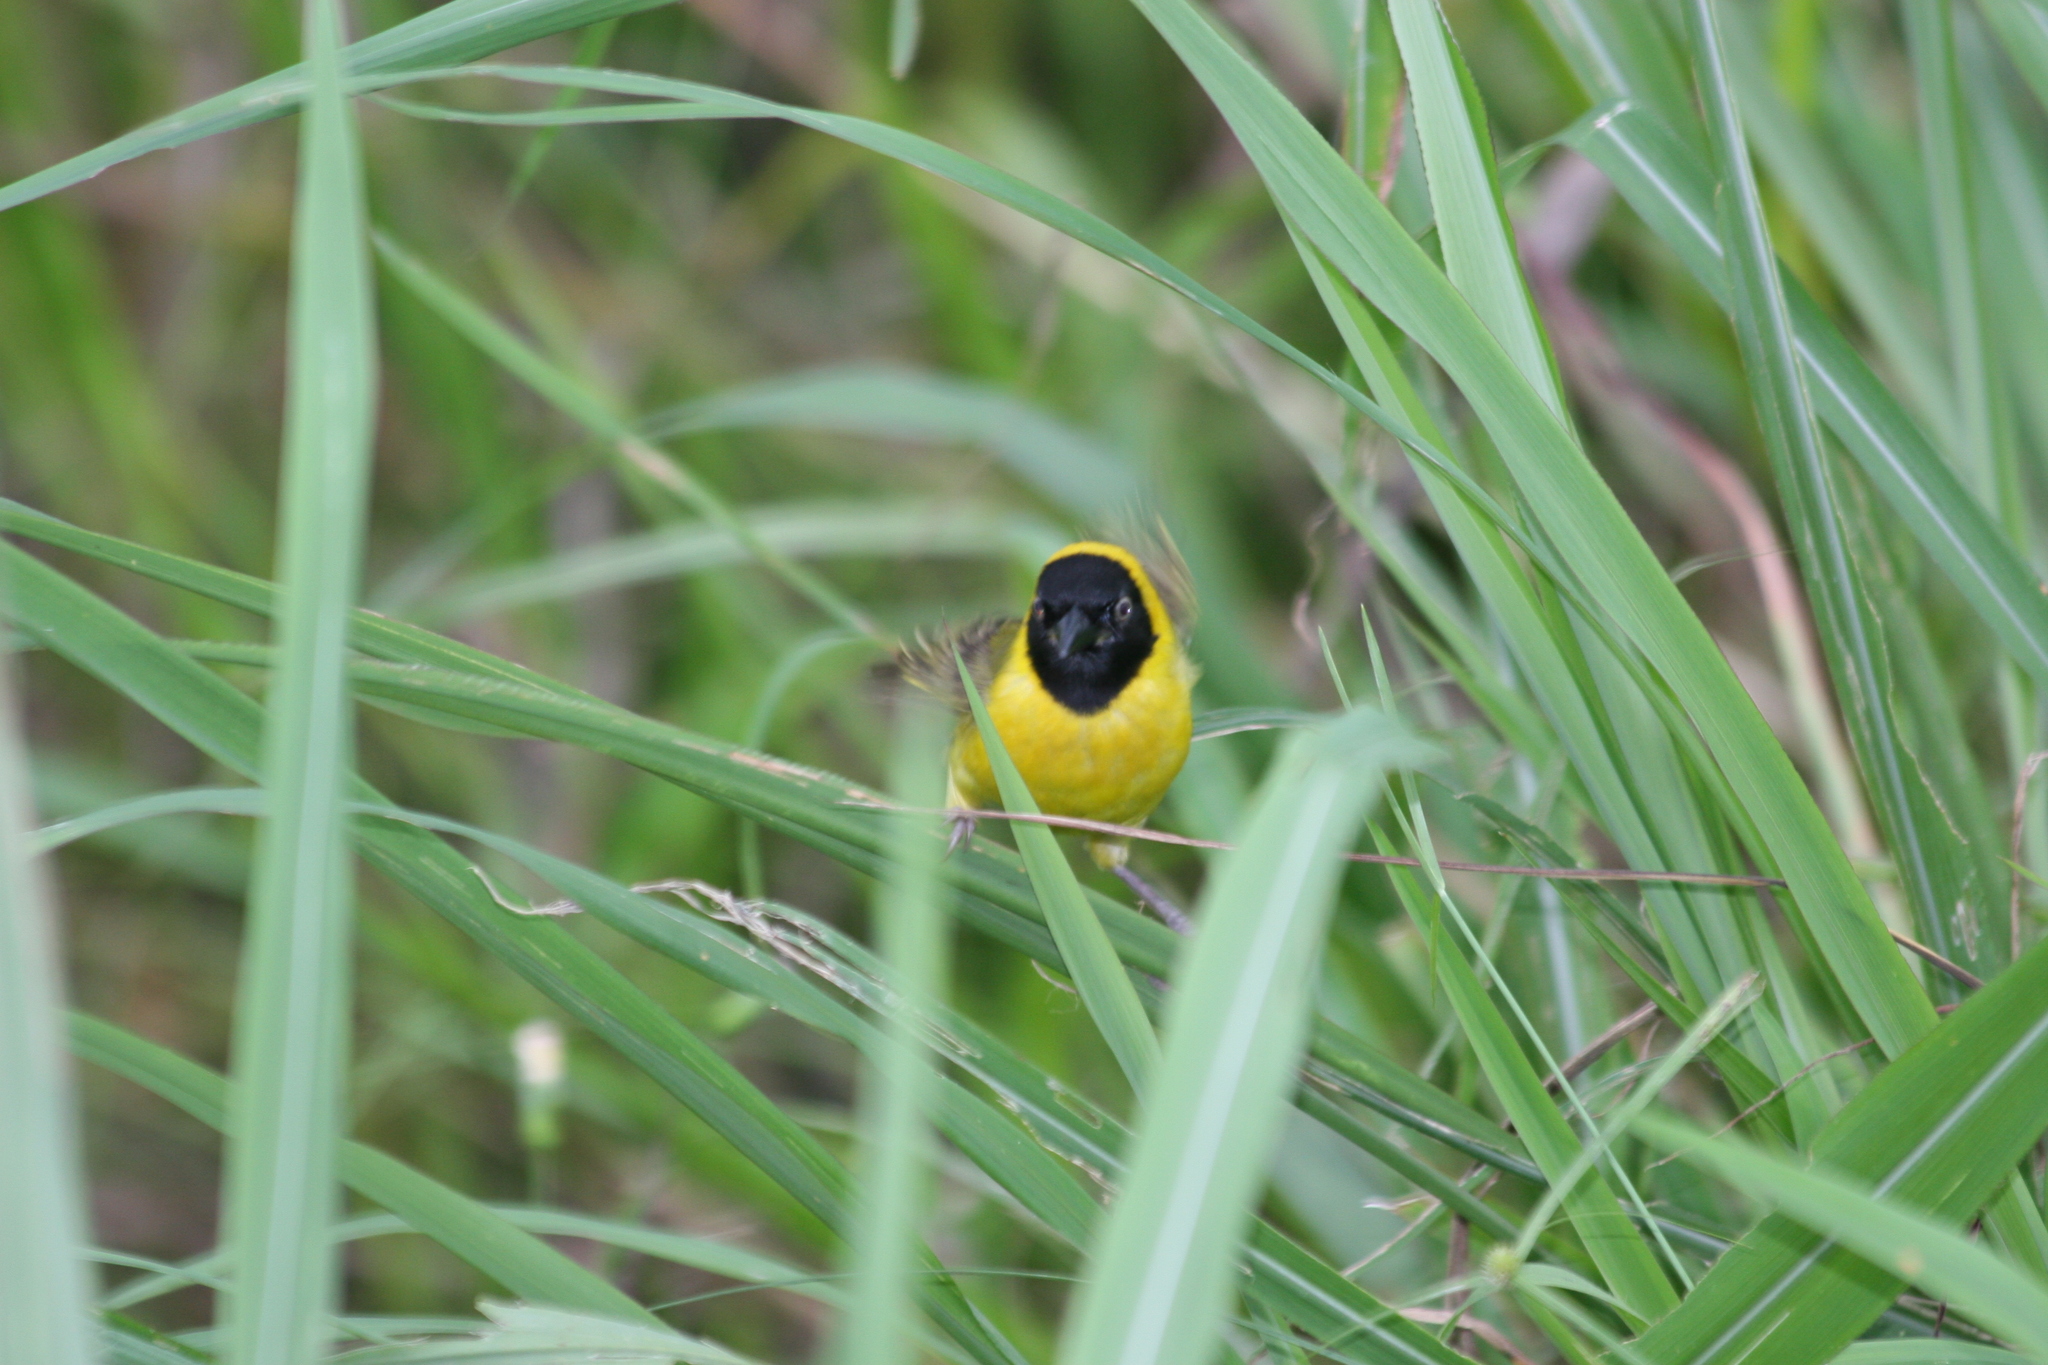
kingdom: Animalia
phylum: Chordata
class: Aves
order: Passeriformes
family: Ploceidae
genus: Ploceus
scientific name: Ploceus subpersonatus
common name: Loango weaver
